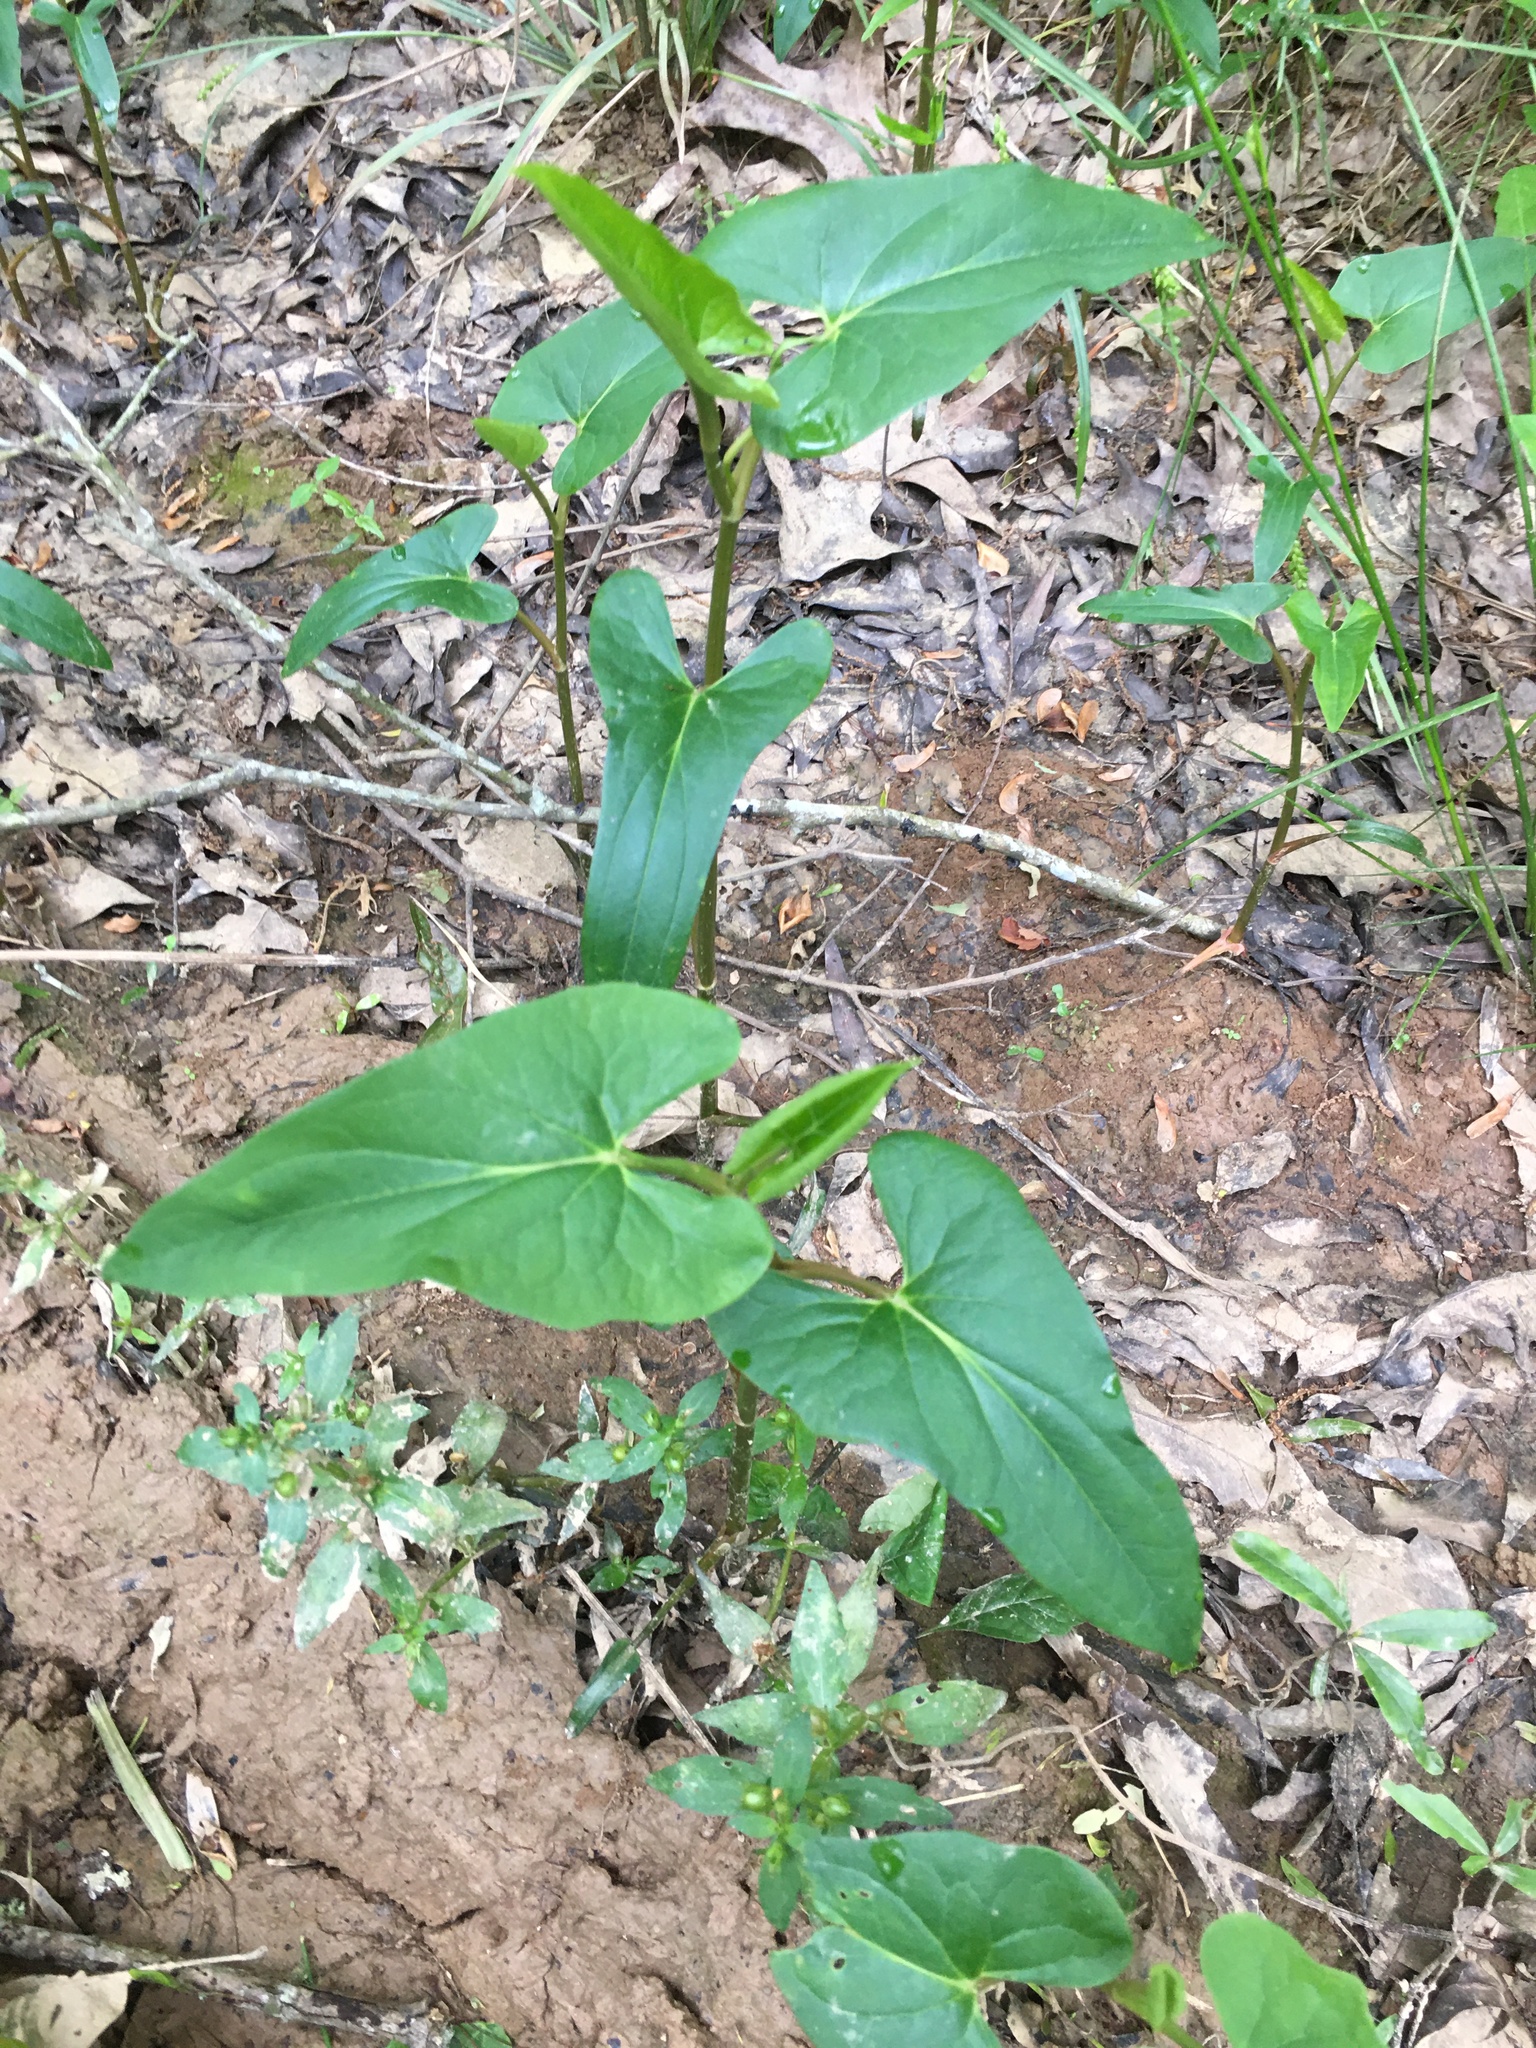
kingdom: Plantae
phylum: Tracheophyta
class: Magnoliopsida
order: Piperales
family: Saururaceae
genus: Saururus
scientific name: Saururus cernuus
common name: Lizard's-tail
